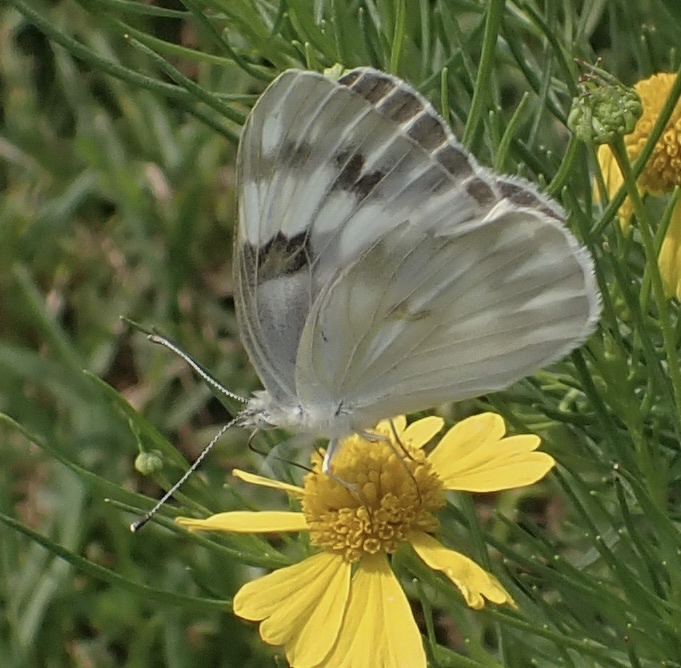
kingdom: Animalia
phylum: Arthropoda
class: Insecta
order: Lepidoptera
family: Pieridae
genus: Pontia
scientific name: Pontia protodice
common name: Checkered white
